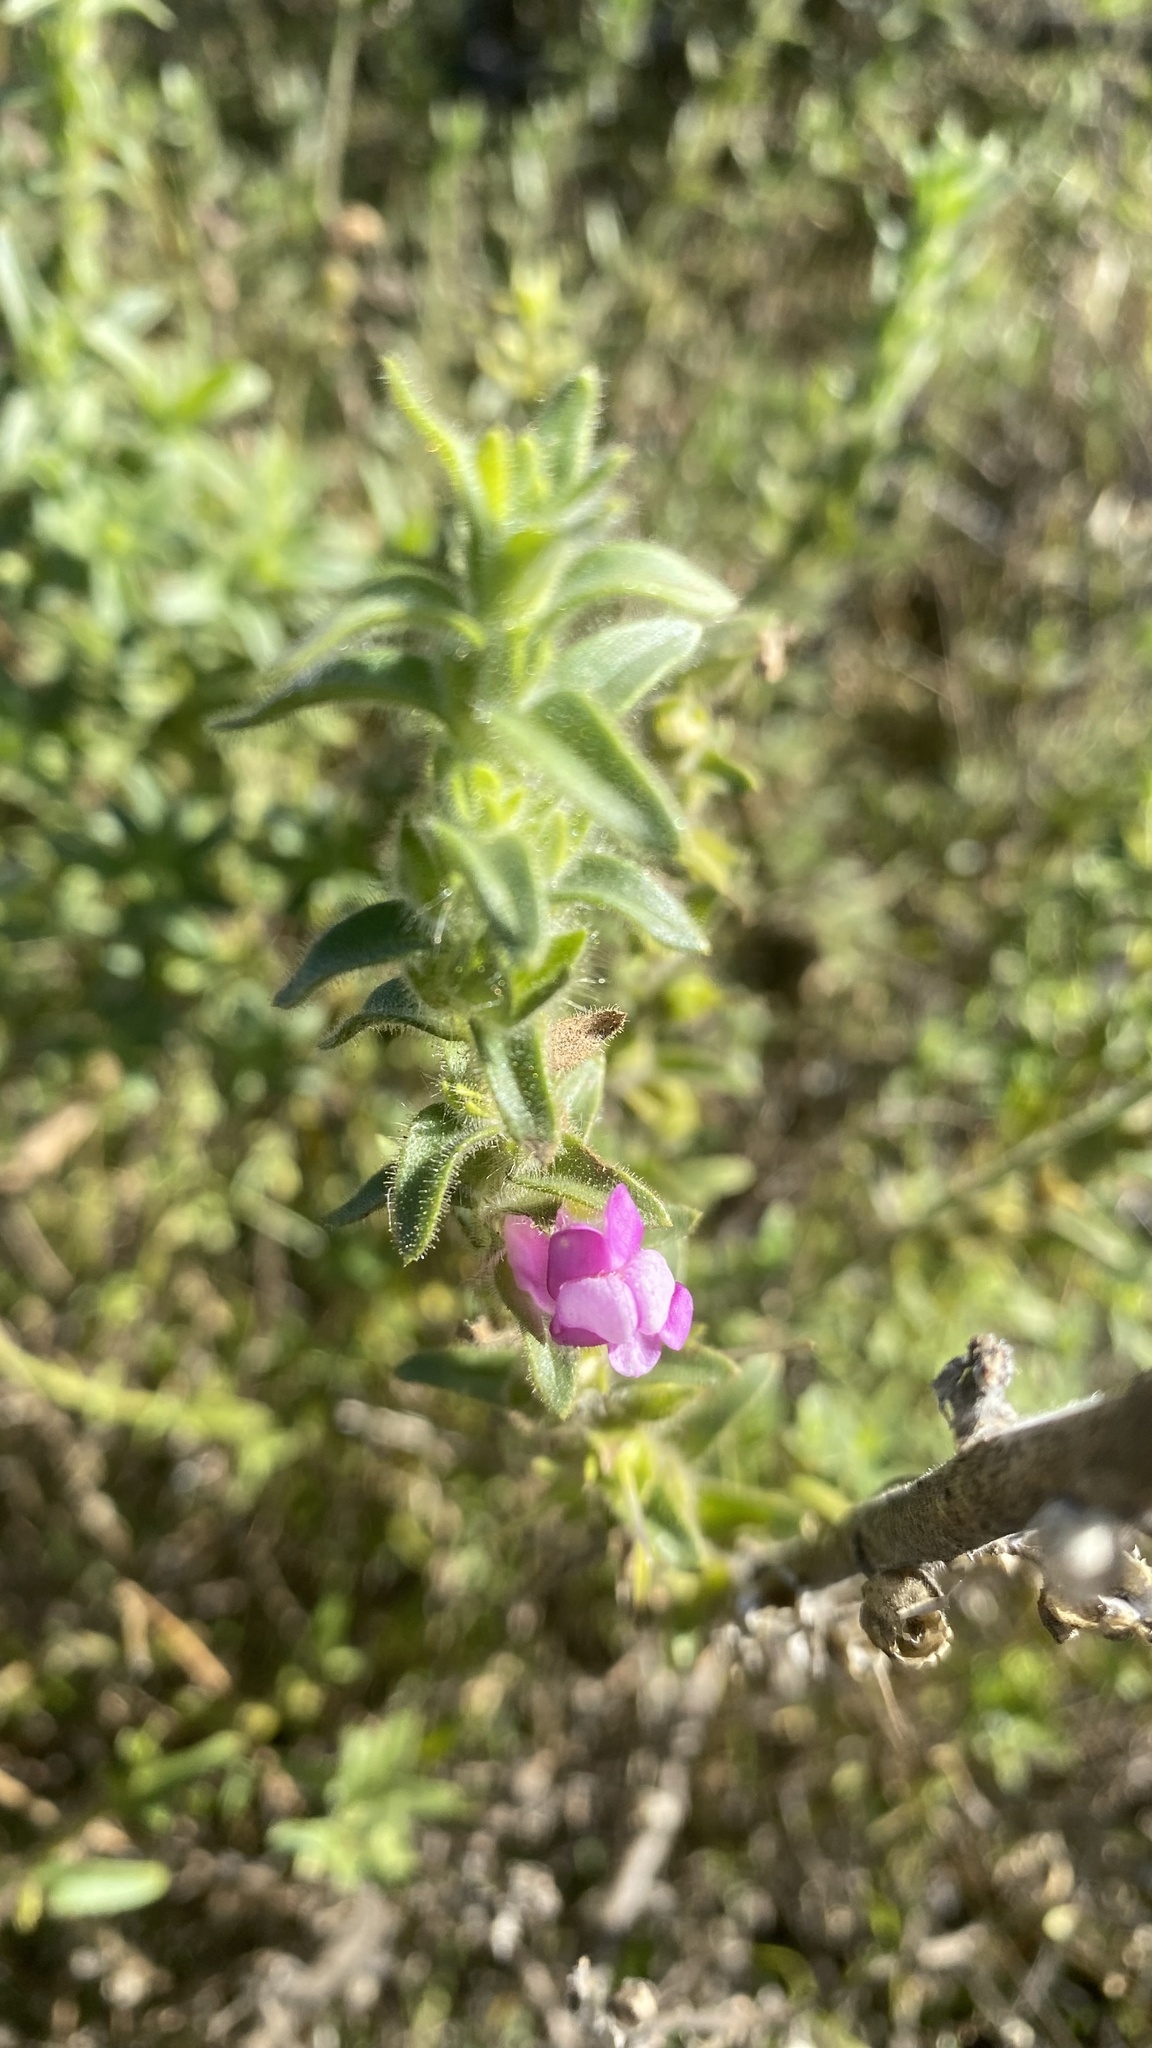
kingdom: Plantae
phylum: Tracheophyta
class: Magnoliopsida
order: Lamiales
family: Plantaginaceae
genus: Sairocarpus
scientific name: Sairocarpus multiflorus
